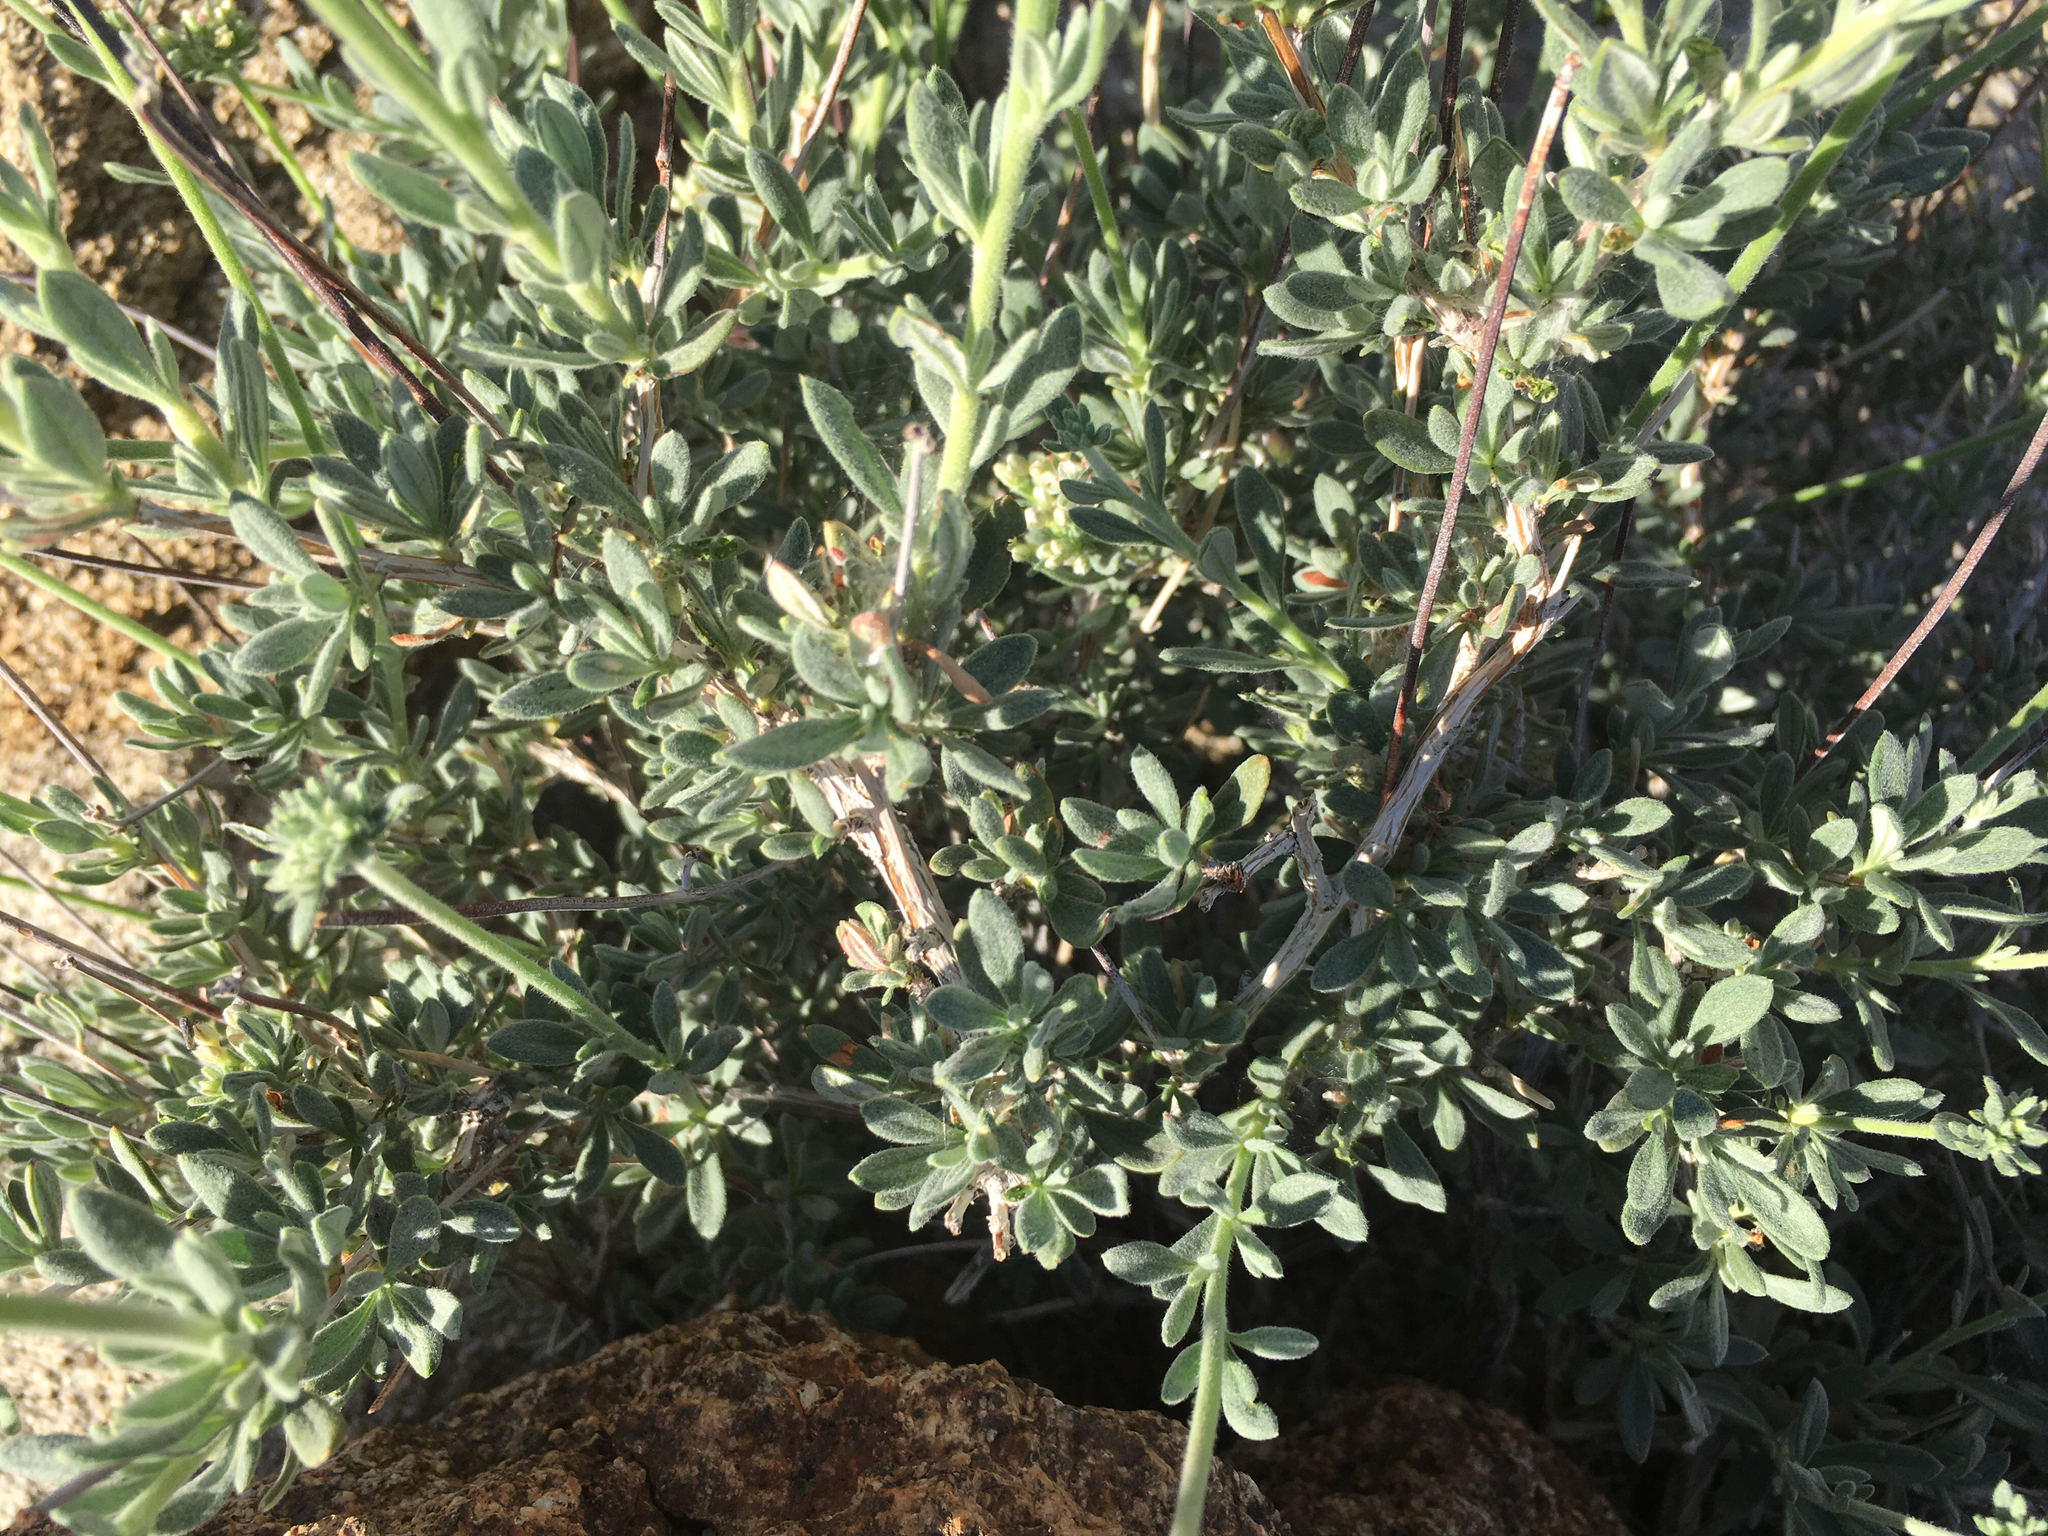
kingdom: Plantae
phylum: Tracheophyta
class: Magnoliopsida
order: Caryophyllales
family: Polygonaceae
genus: Eriogonum
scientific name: Eriogonum fasciculatum
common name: California wild buckwheat
